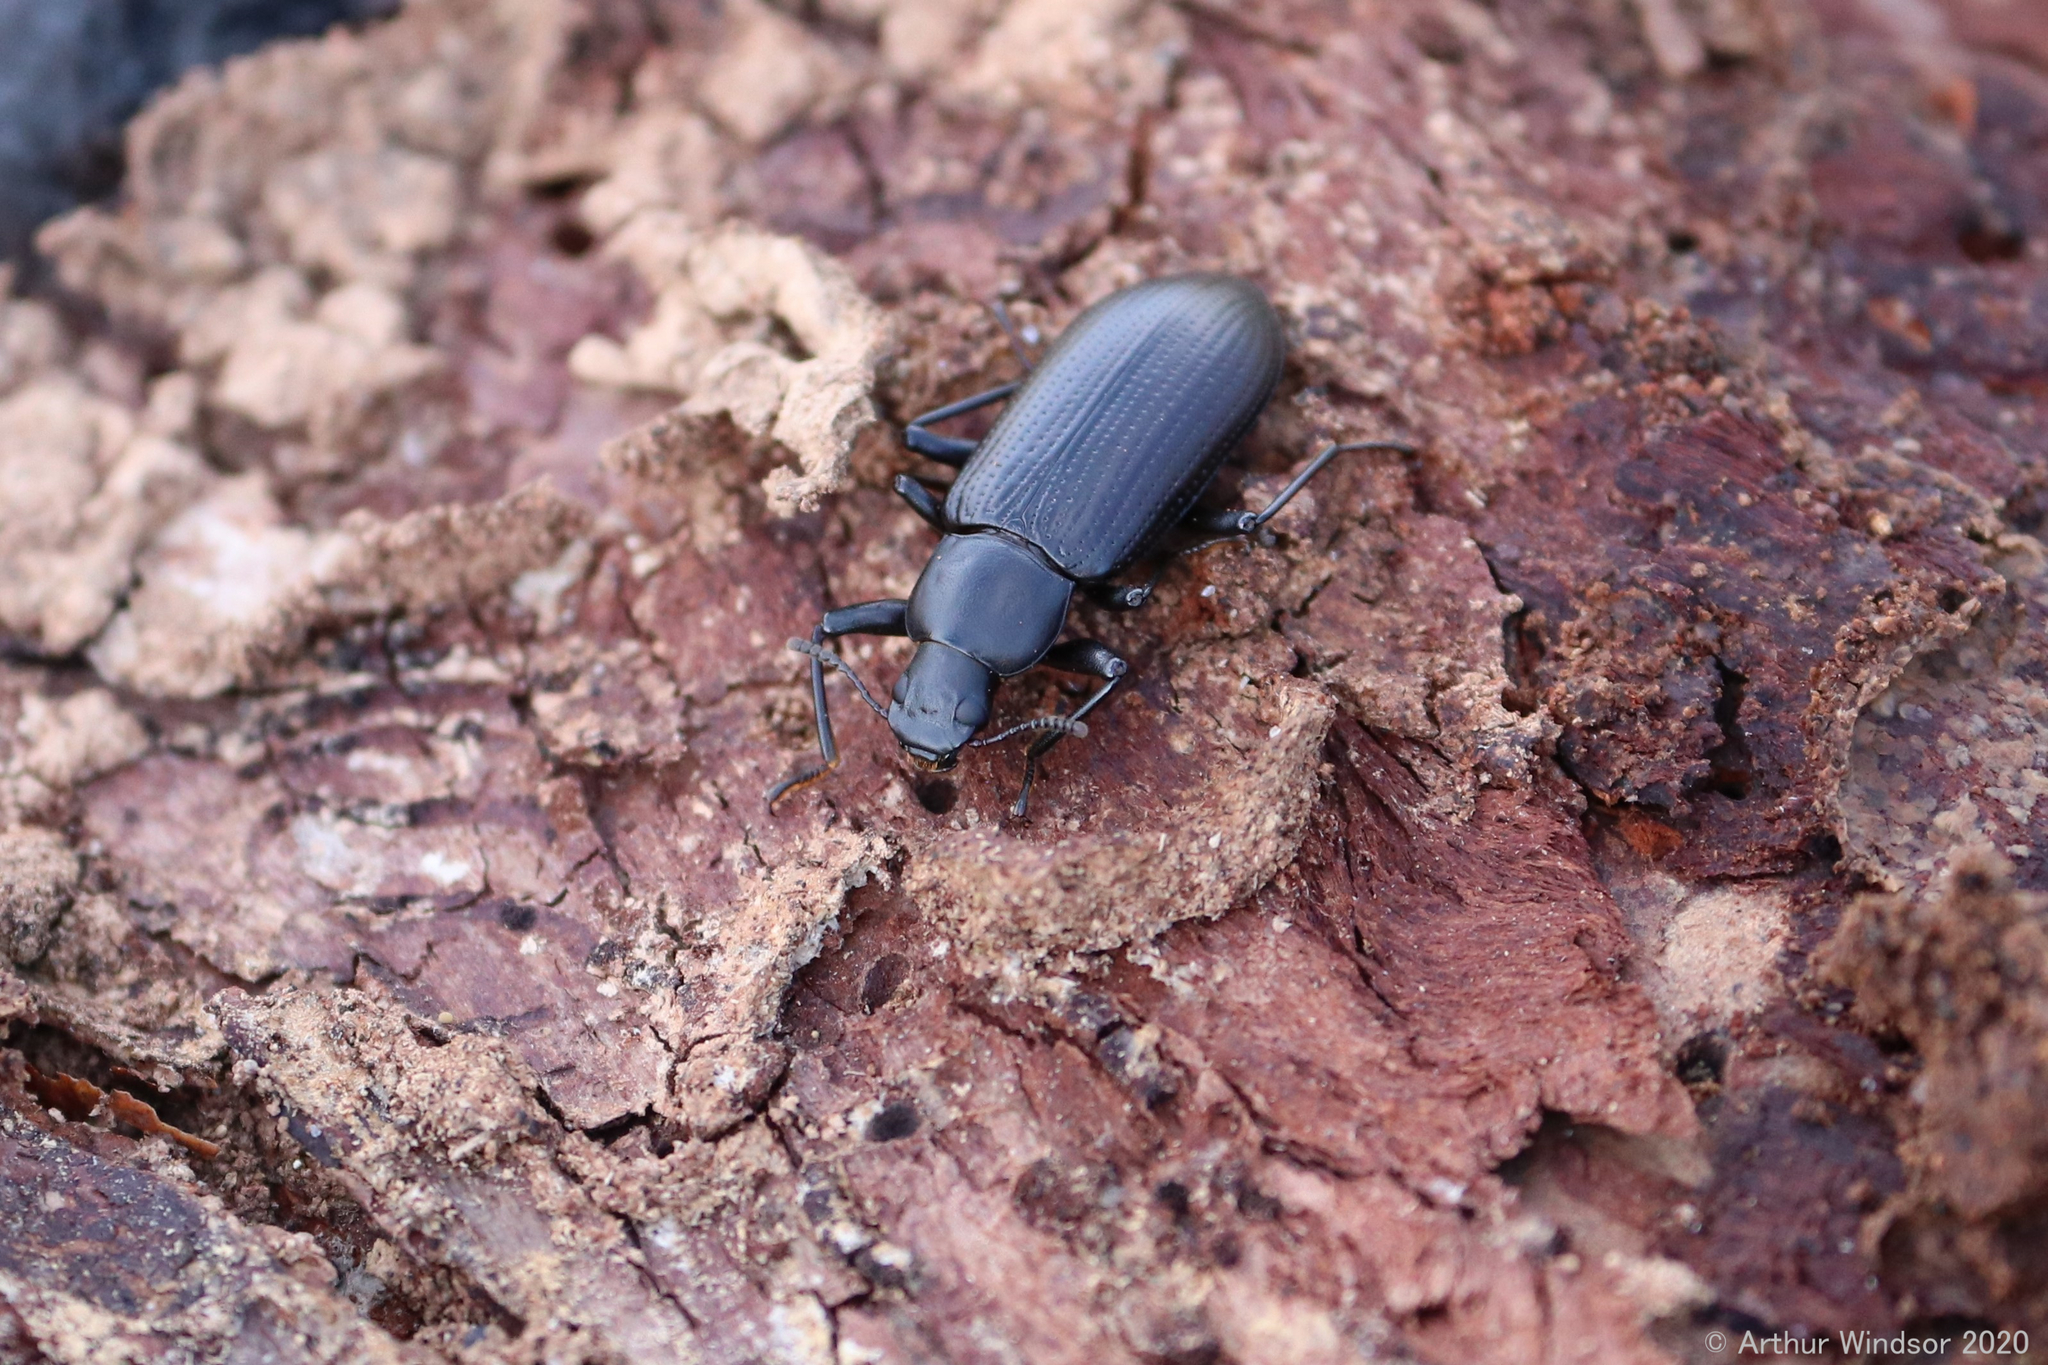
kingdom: Animalia
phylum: Arthropoda
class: Insecta
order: Coleoptera
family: Tenebrionidae
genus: Alobates
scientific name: Alobates
